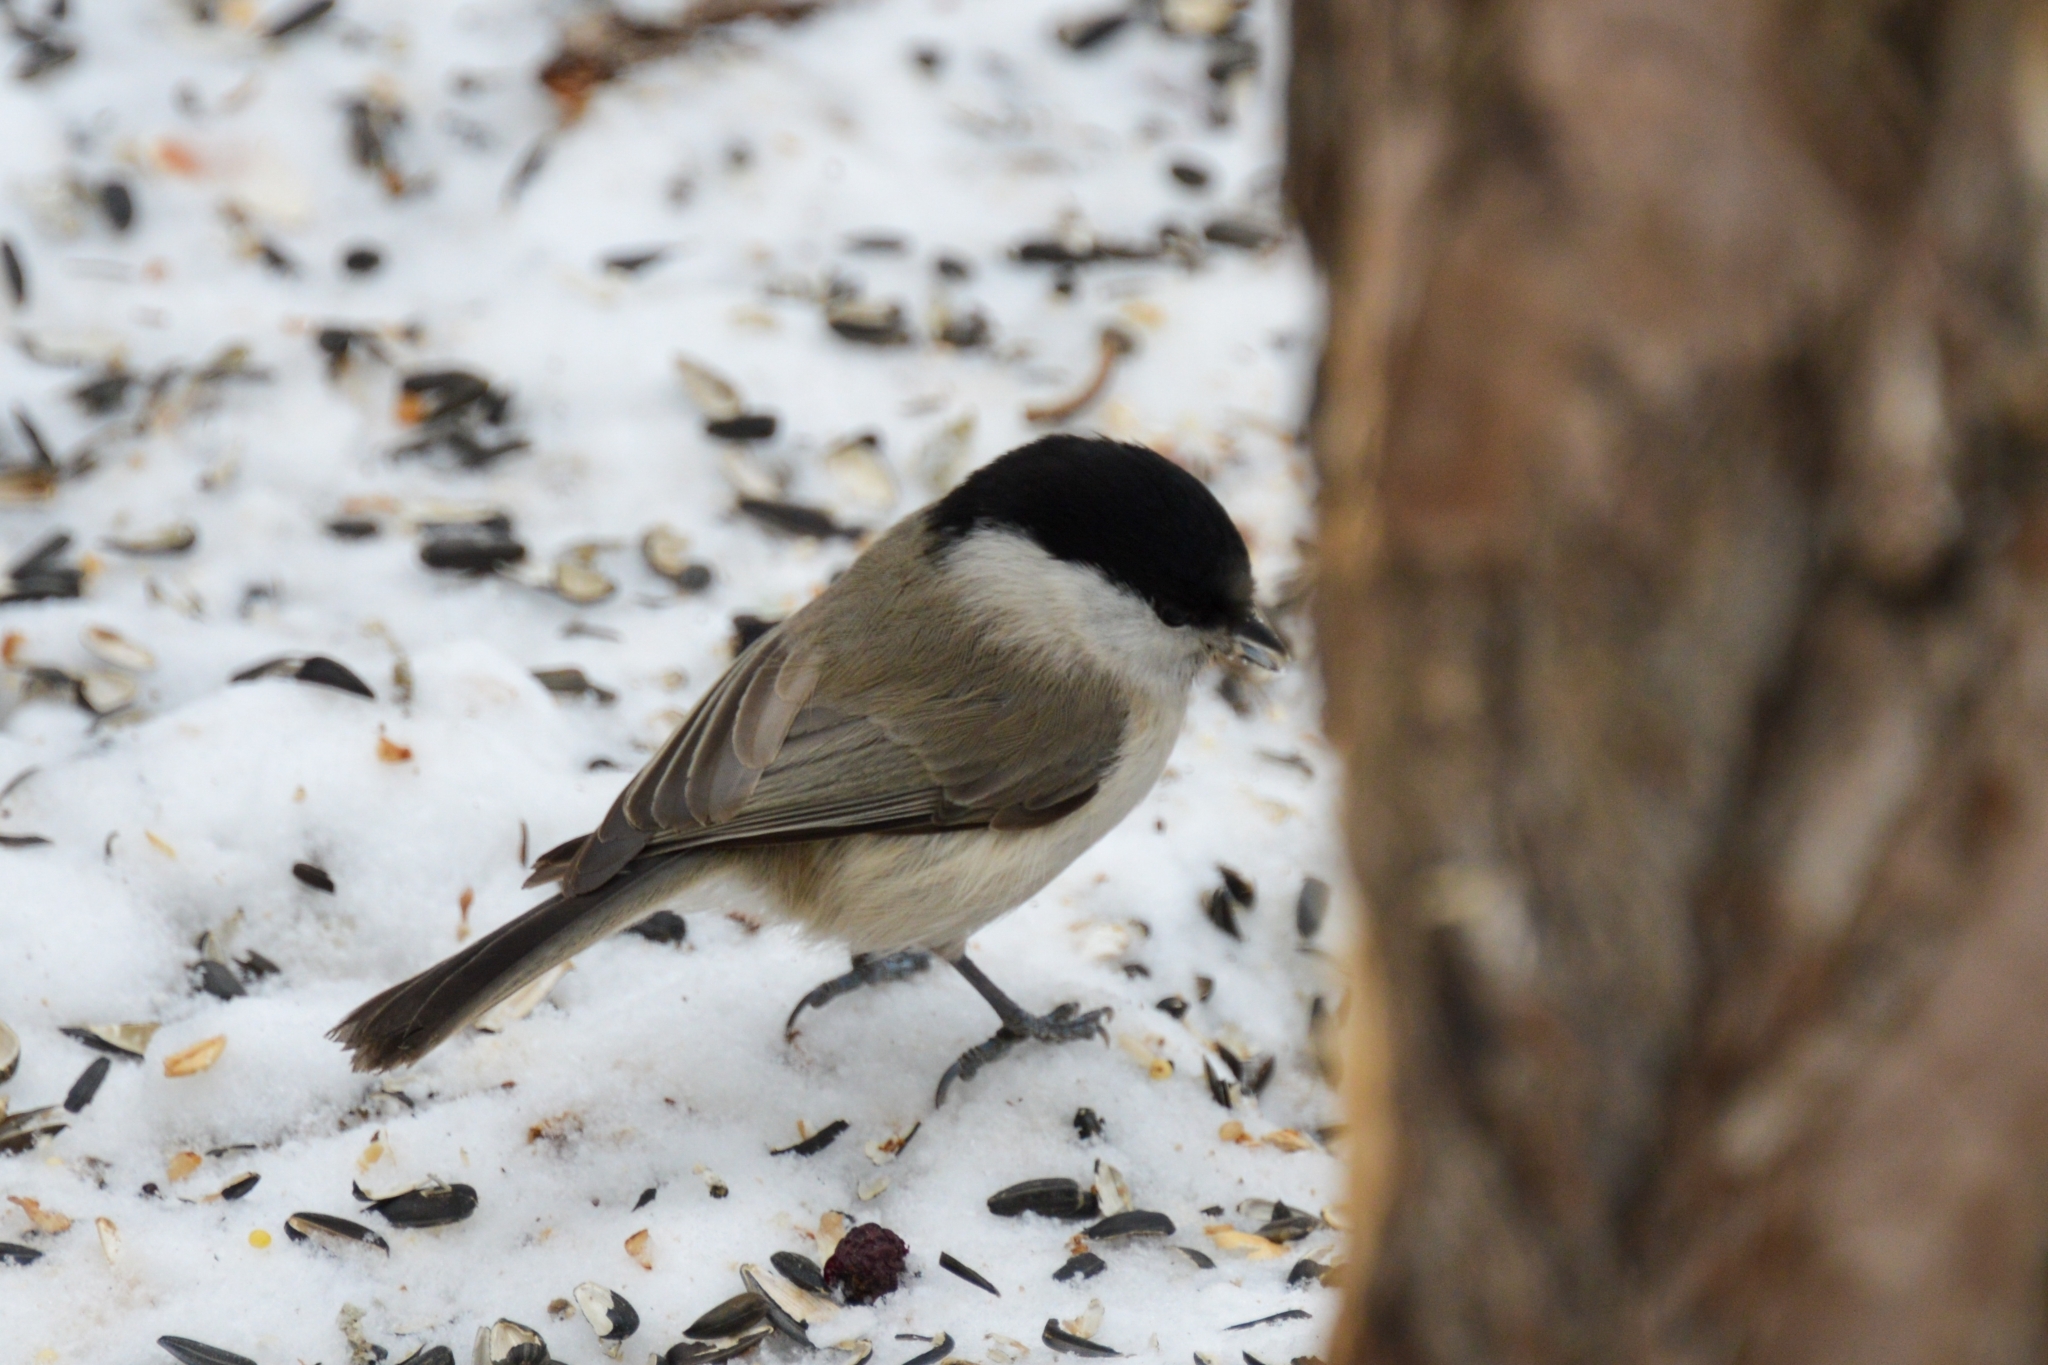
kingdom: Animalia
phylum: Chordata
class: Aves
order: Passeriformes
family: Paridae
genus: Poecile
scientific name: Poecile palustris
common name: Marsh tit
